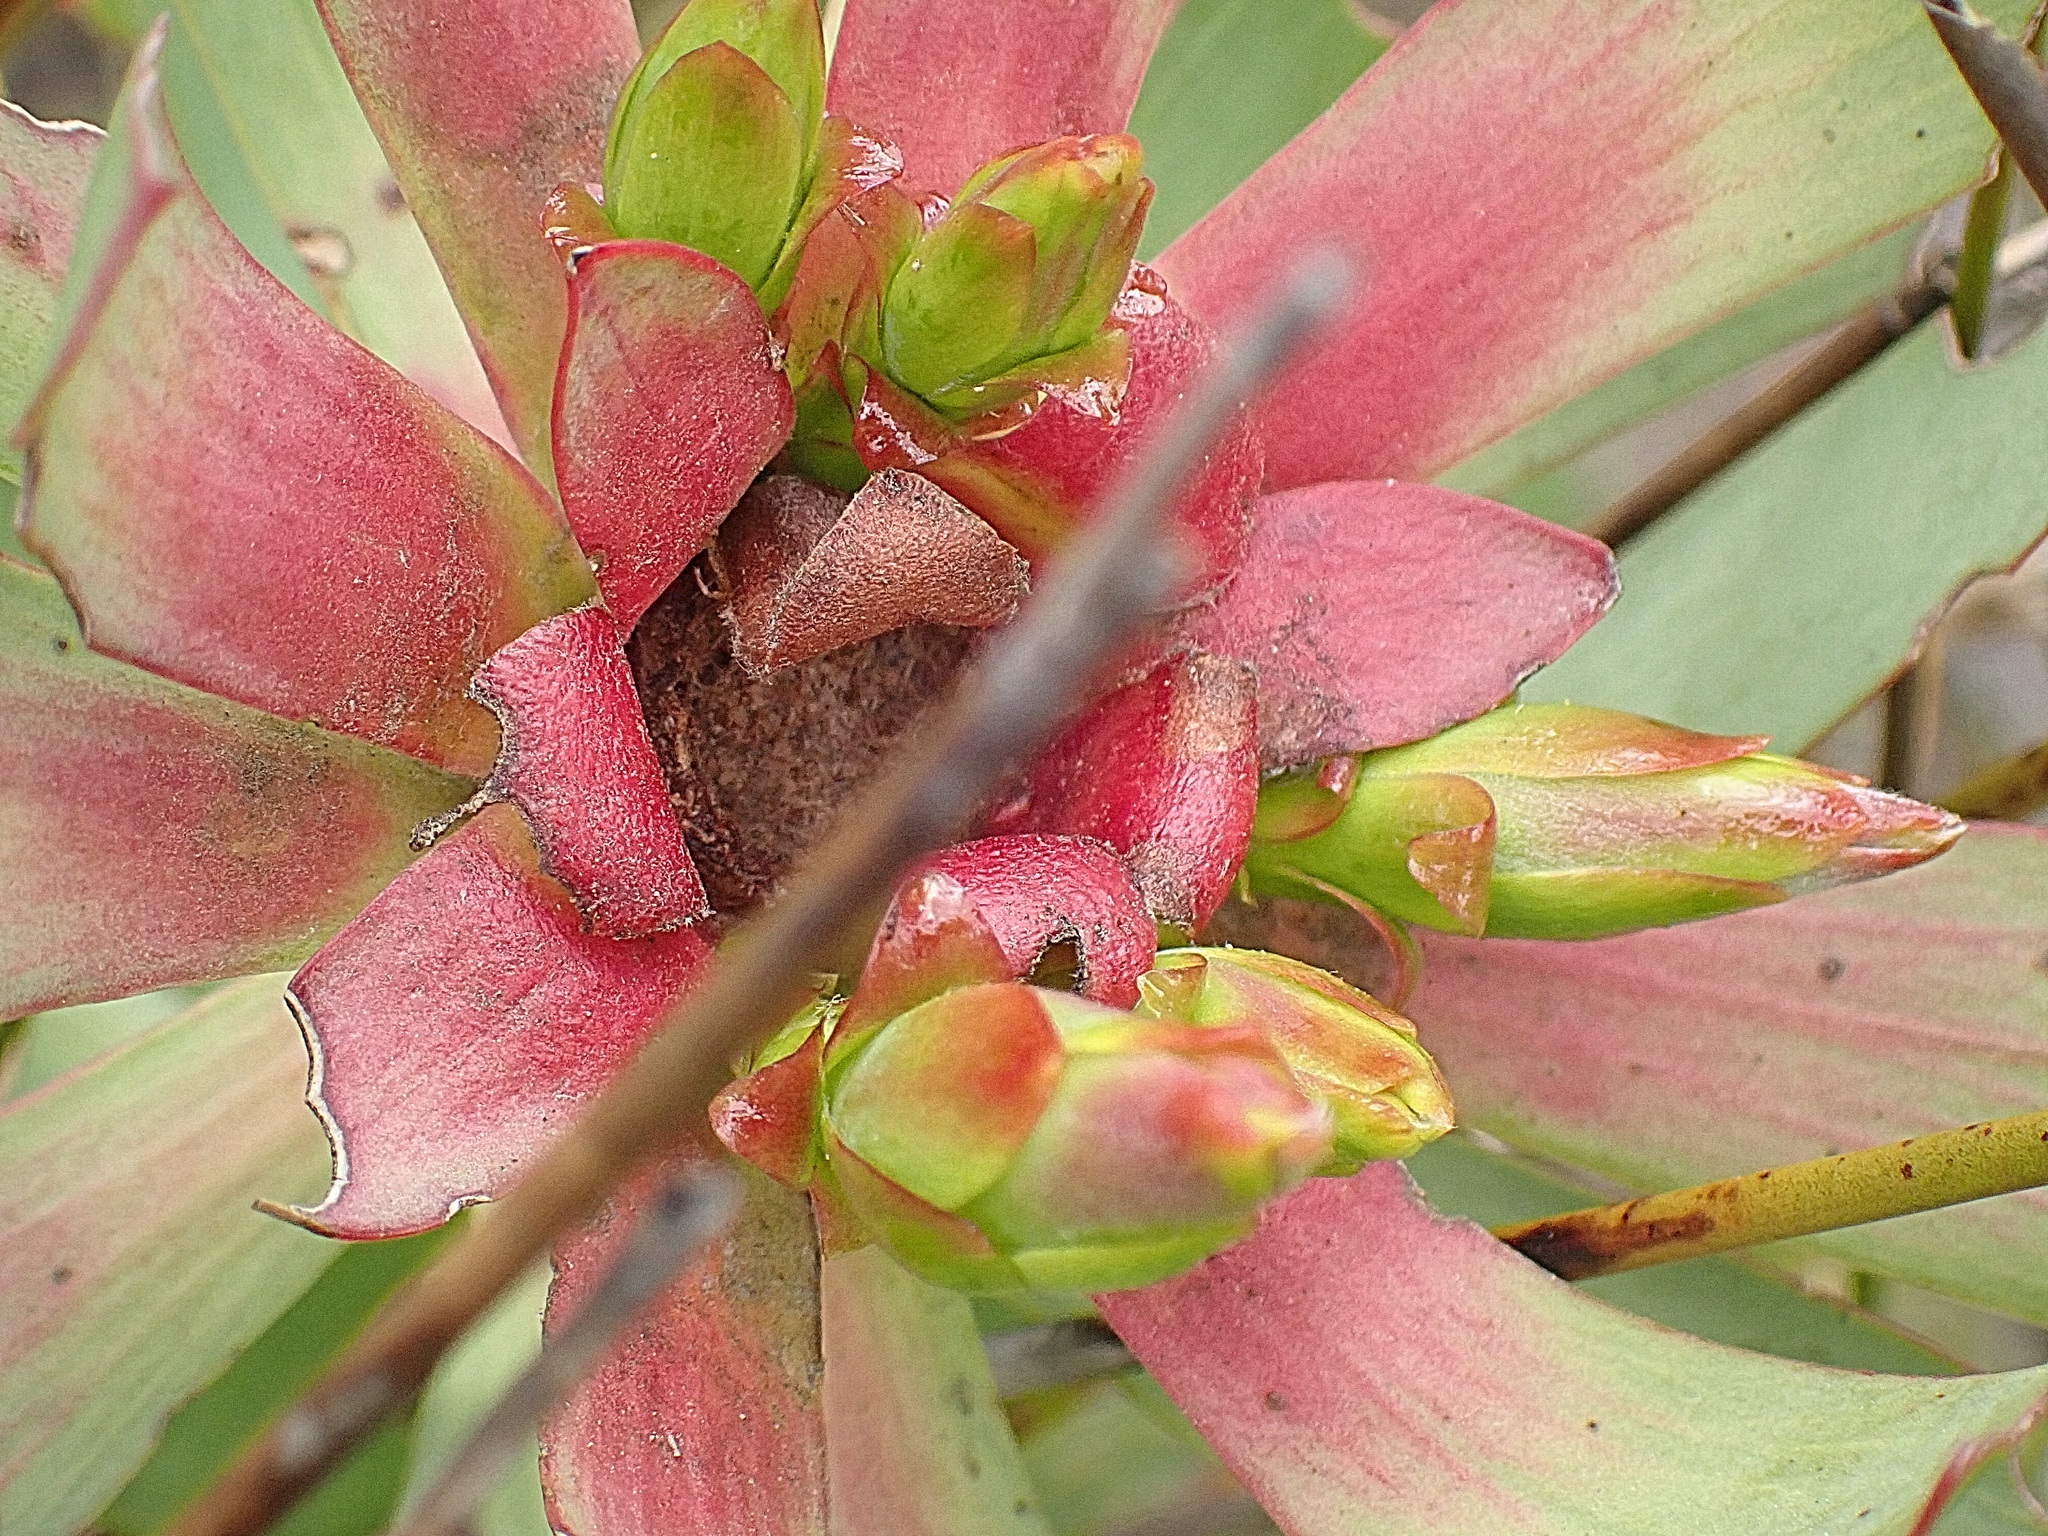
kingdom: Plantae
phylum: Tracheophyta
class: Magnoliopsida
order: Proteales
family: Proteaceae
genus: Leucadendron
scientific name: Leucadendron tinctum
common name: Spicy conebush
